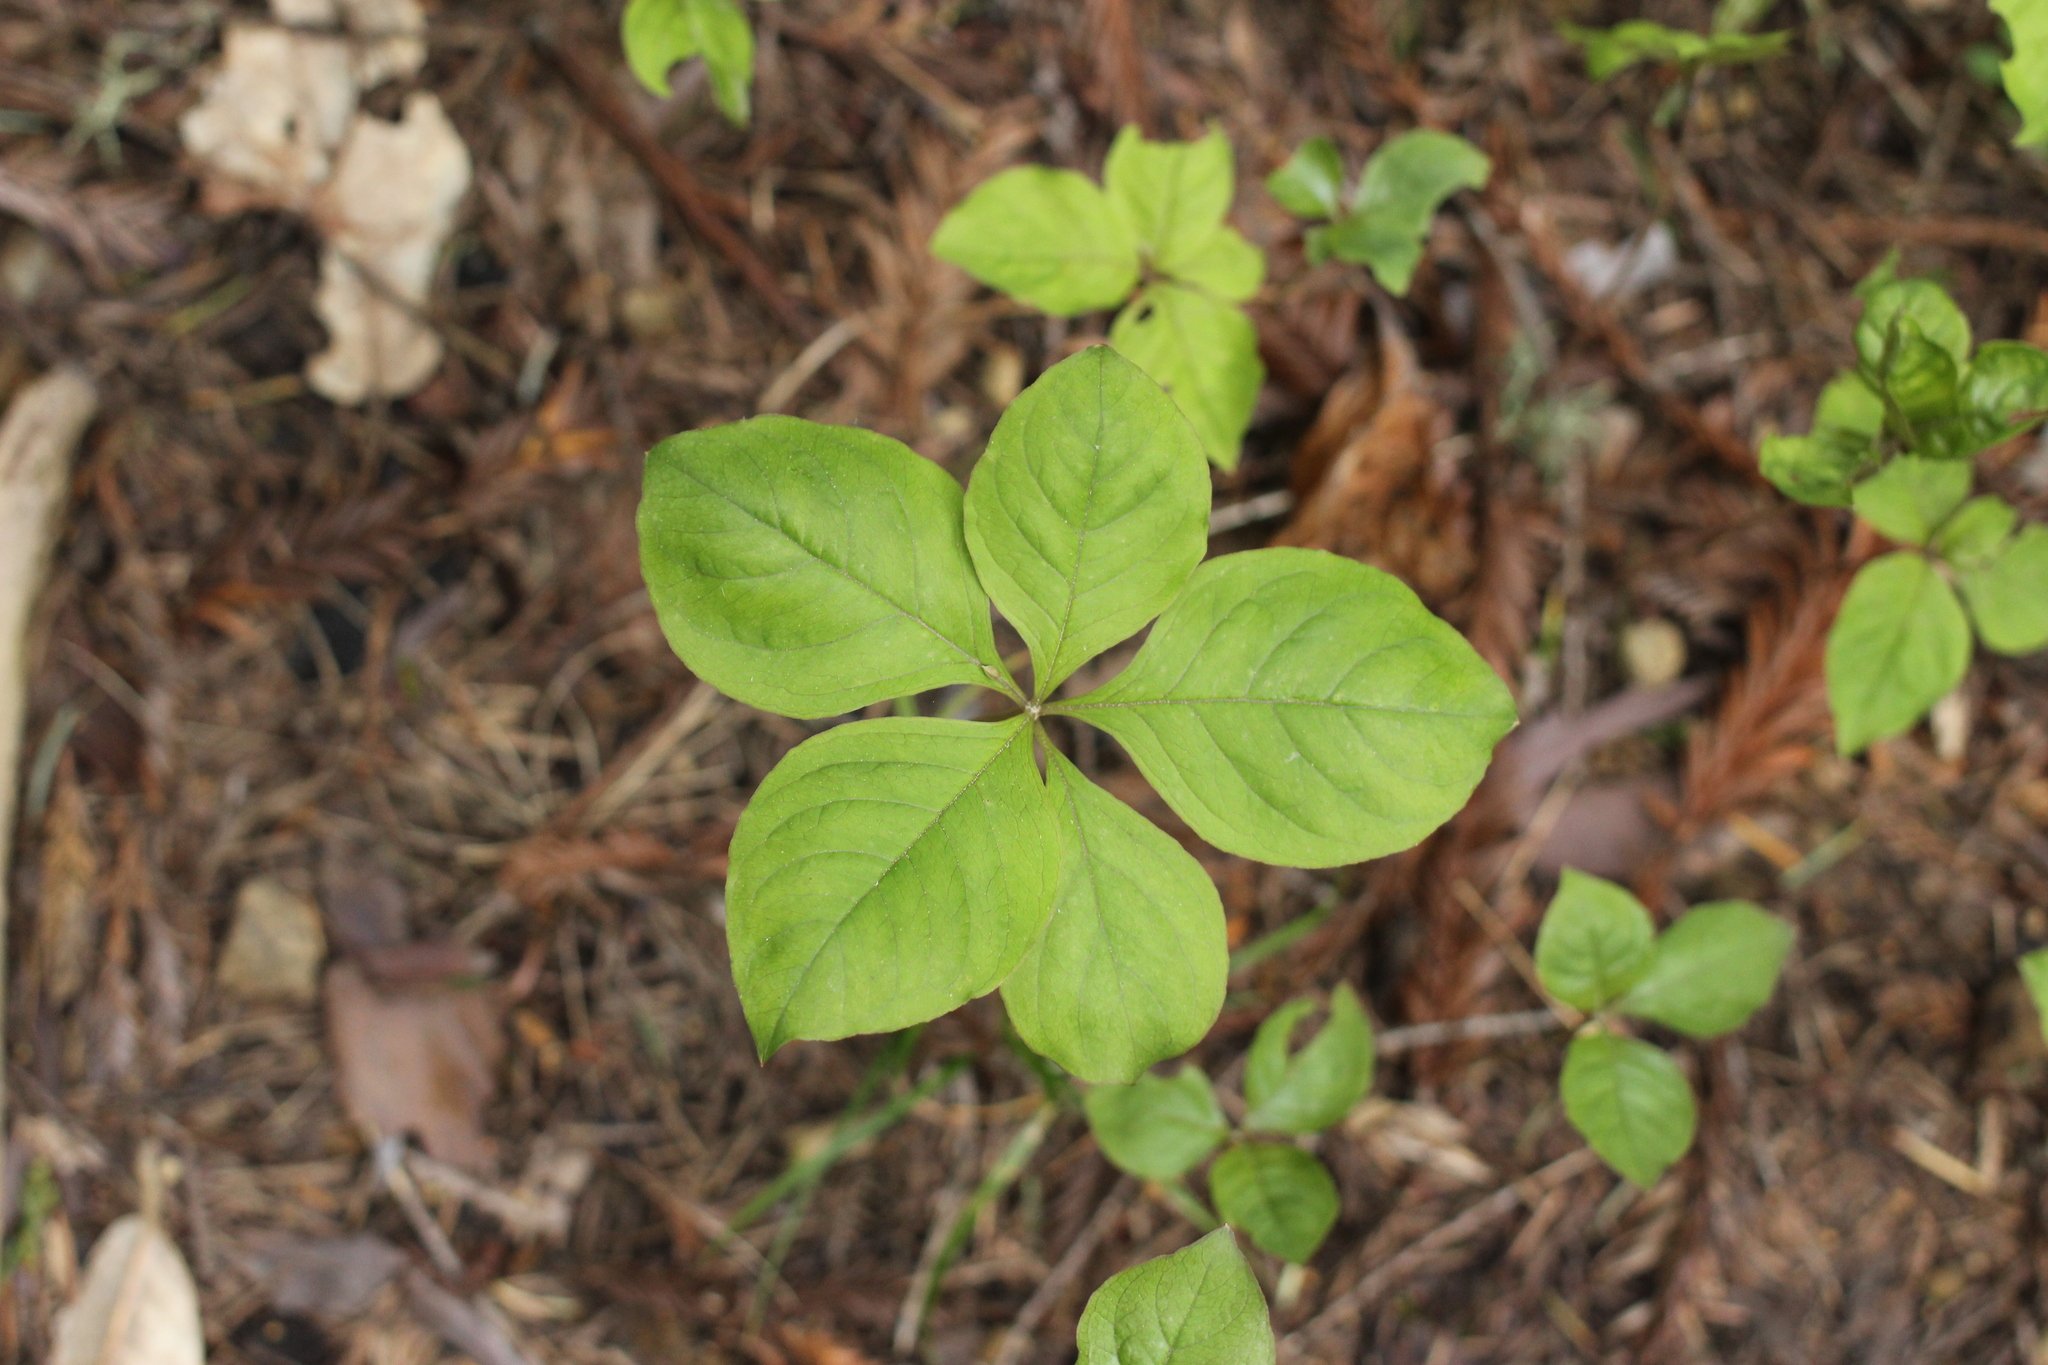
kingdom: Plantae
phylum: Tracheophyta
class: Magnoliopsida
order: Ericales
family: Primulaceae
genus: Lysimachia
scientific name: Lysimachia latifolia
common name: Pacific starflower
